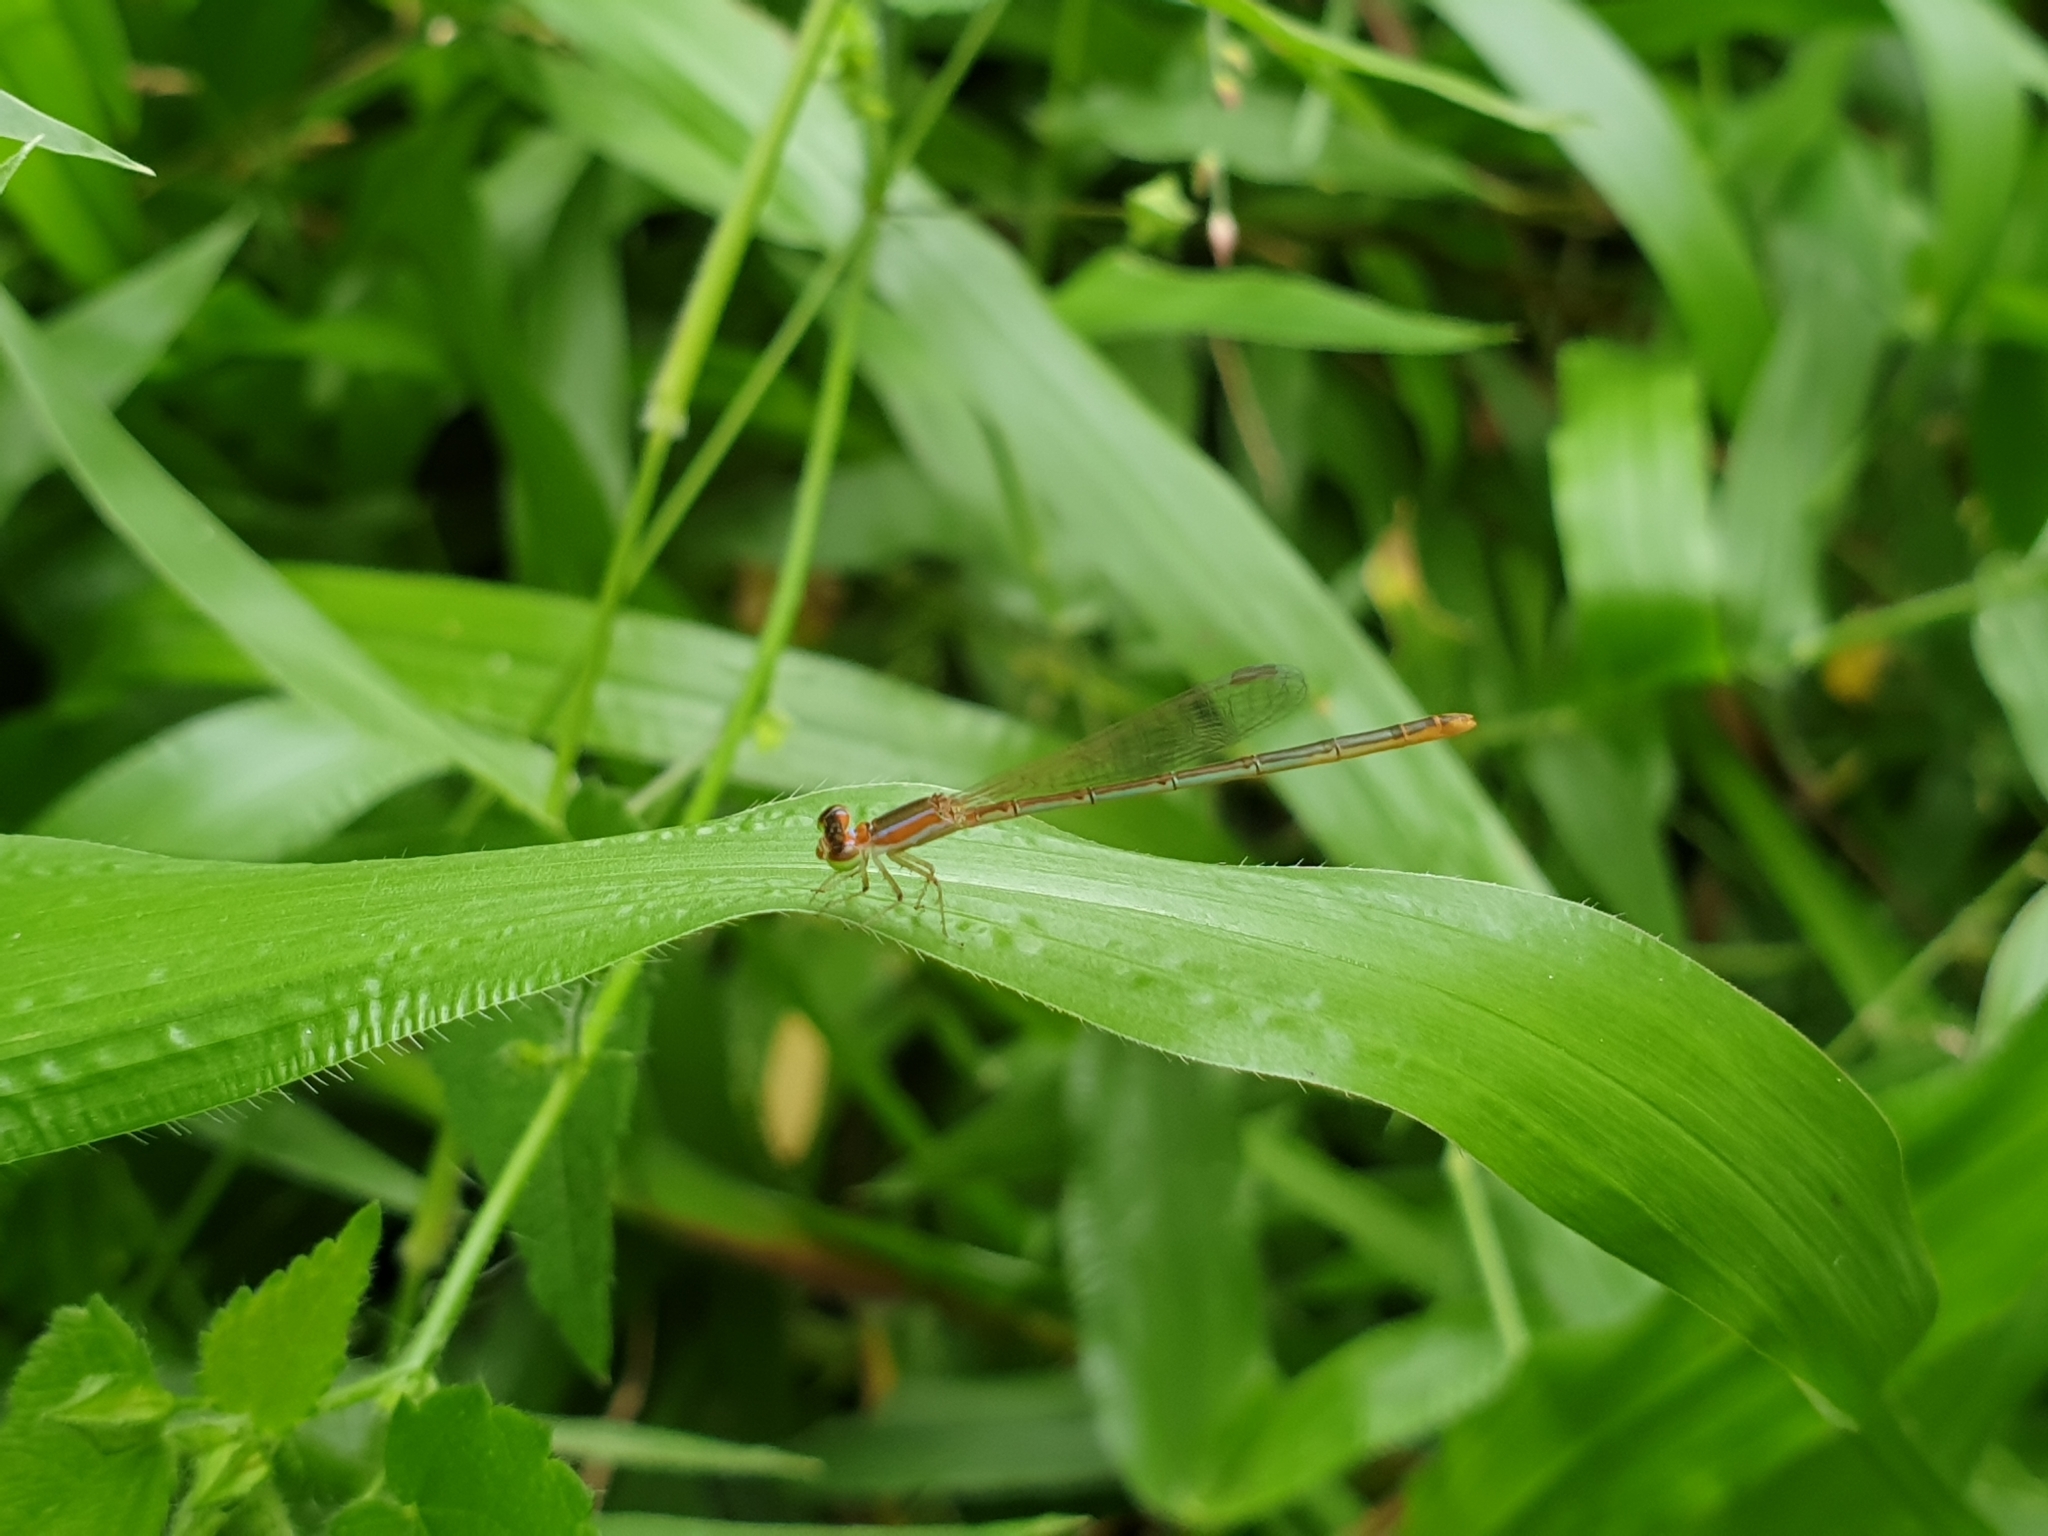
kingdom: Animalia
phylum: Arthropoda
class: Insecta
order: Odonata
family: Coenagrionidae
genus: Agriocnemis
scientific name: Agriocnemis pygmaea
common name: Pygmy wisp
